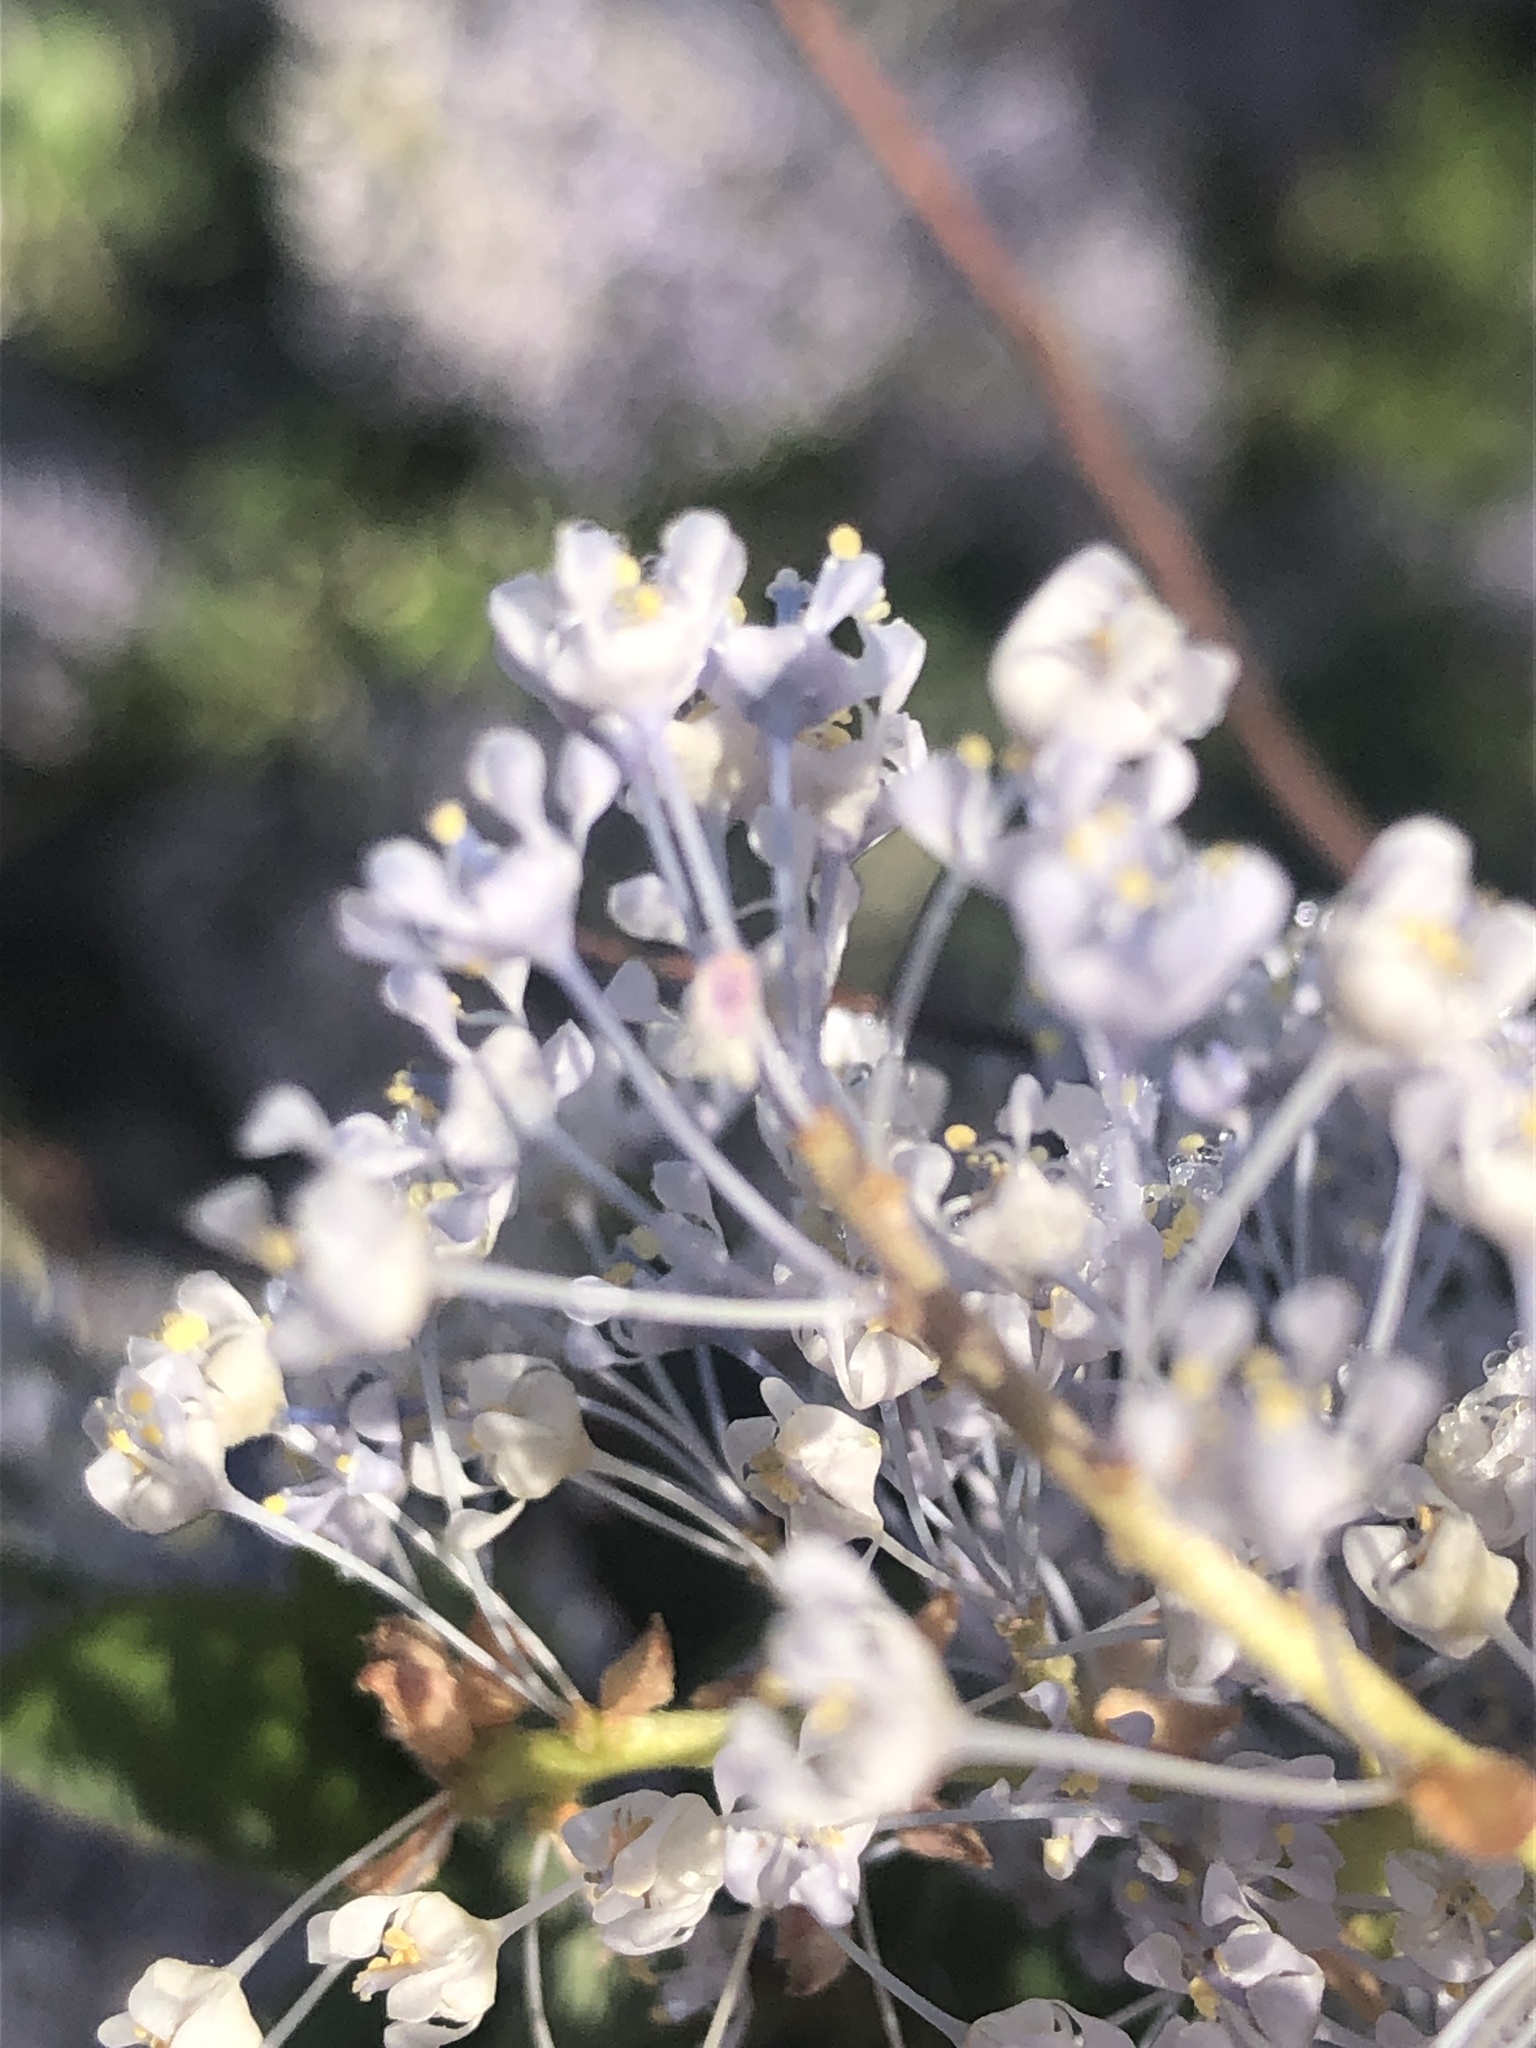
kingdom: Plantae
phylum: Tracheophyta
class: Magnoliopsida
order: Rosales
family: Rhamnaceae
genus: Ceanothus
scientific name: Ceanothus leucodermis
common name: Chaparral whitethorn
